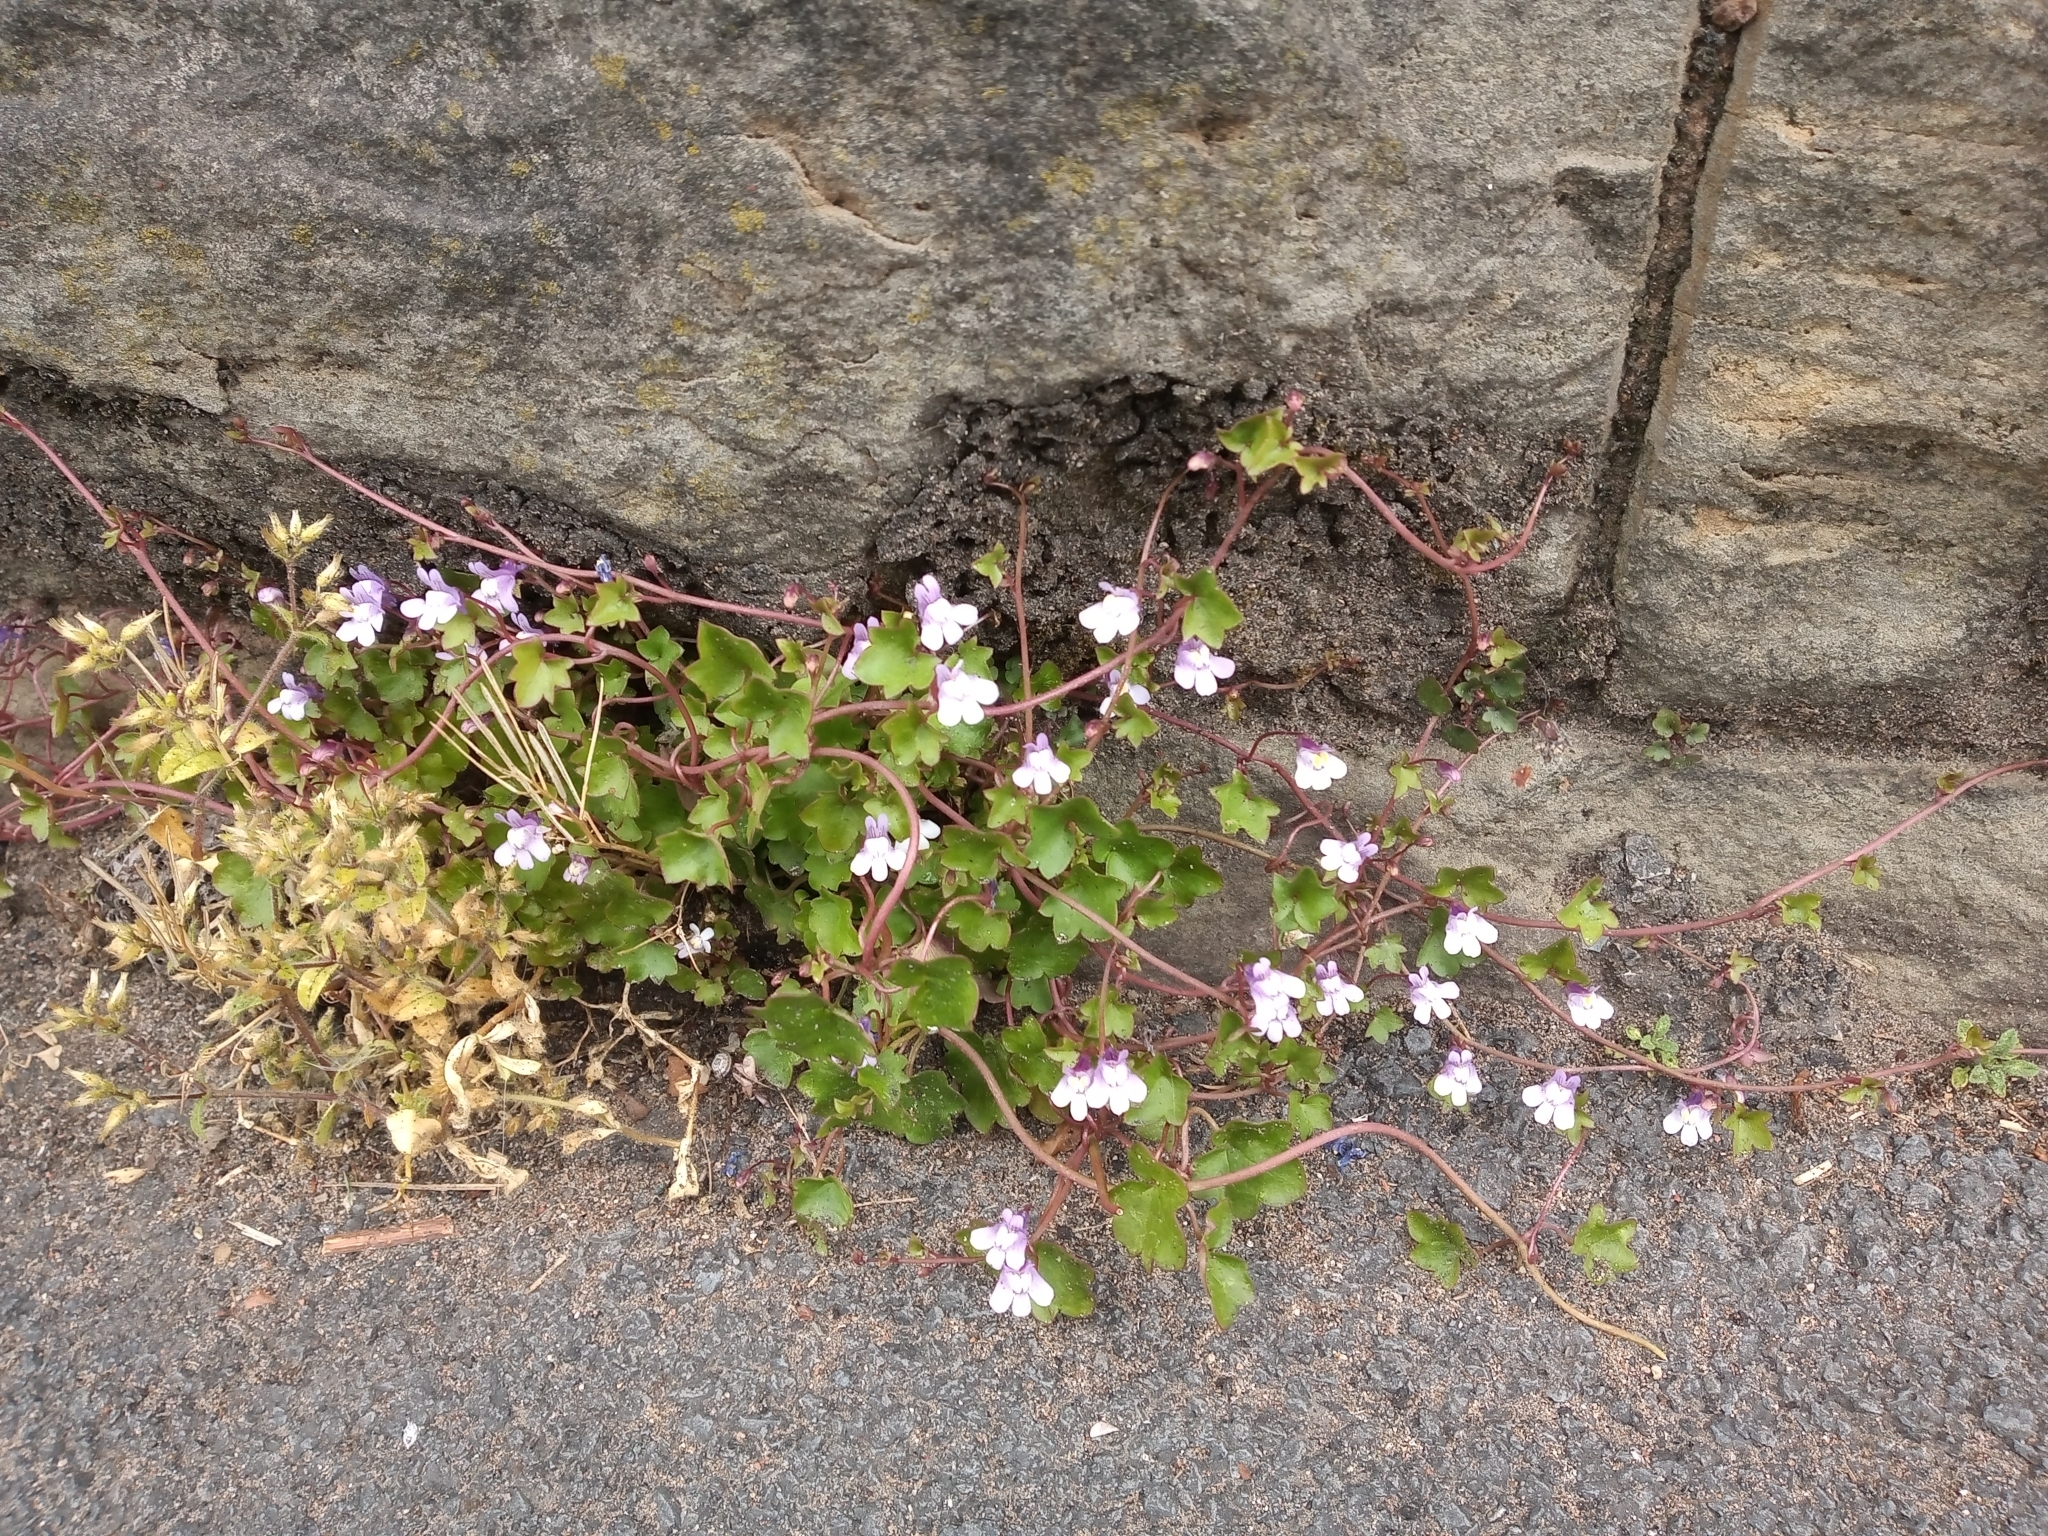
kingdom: Plantae
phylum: Tracheophyta
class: Magnoliopsida
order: Lamiales
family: Plantaginaceae
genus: Cymbalaria
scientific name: Cymbalaria muralis
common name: Ivy-leaved toadflax
